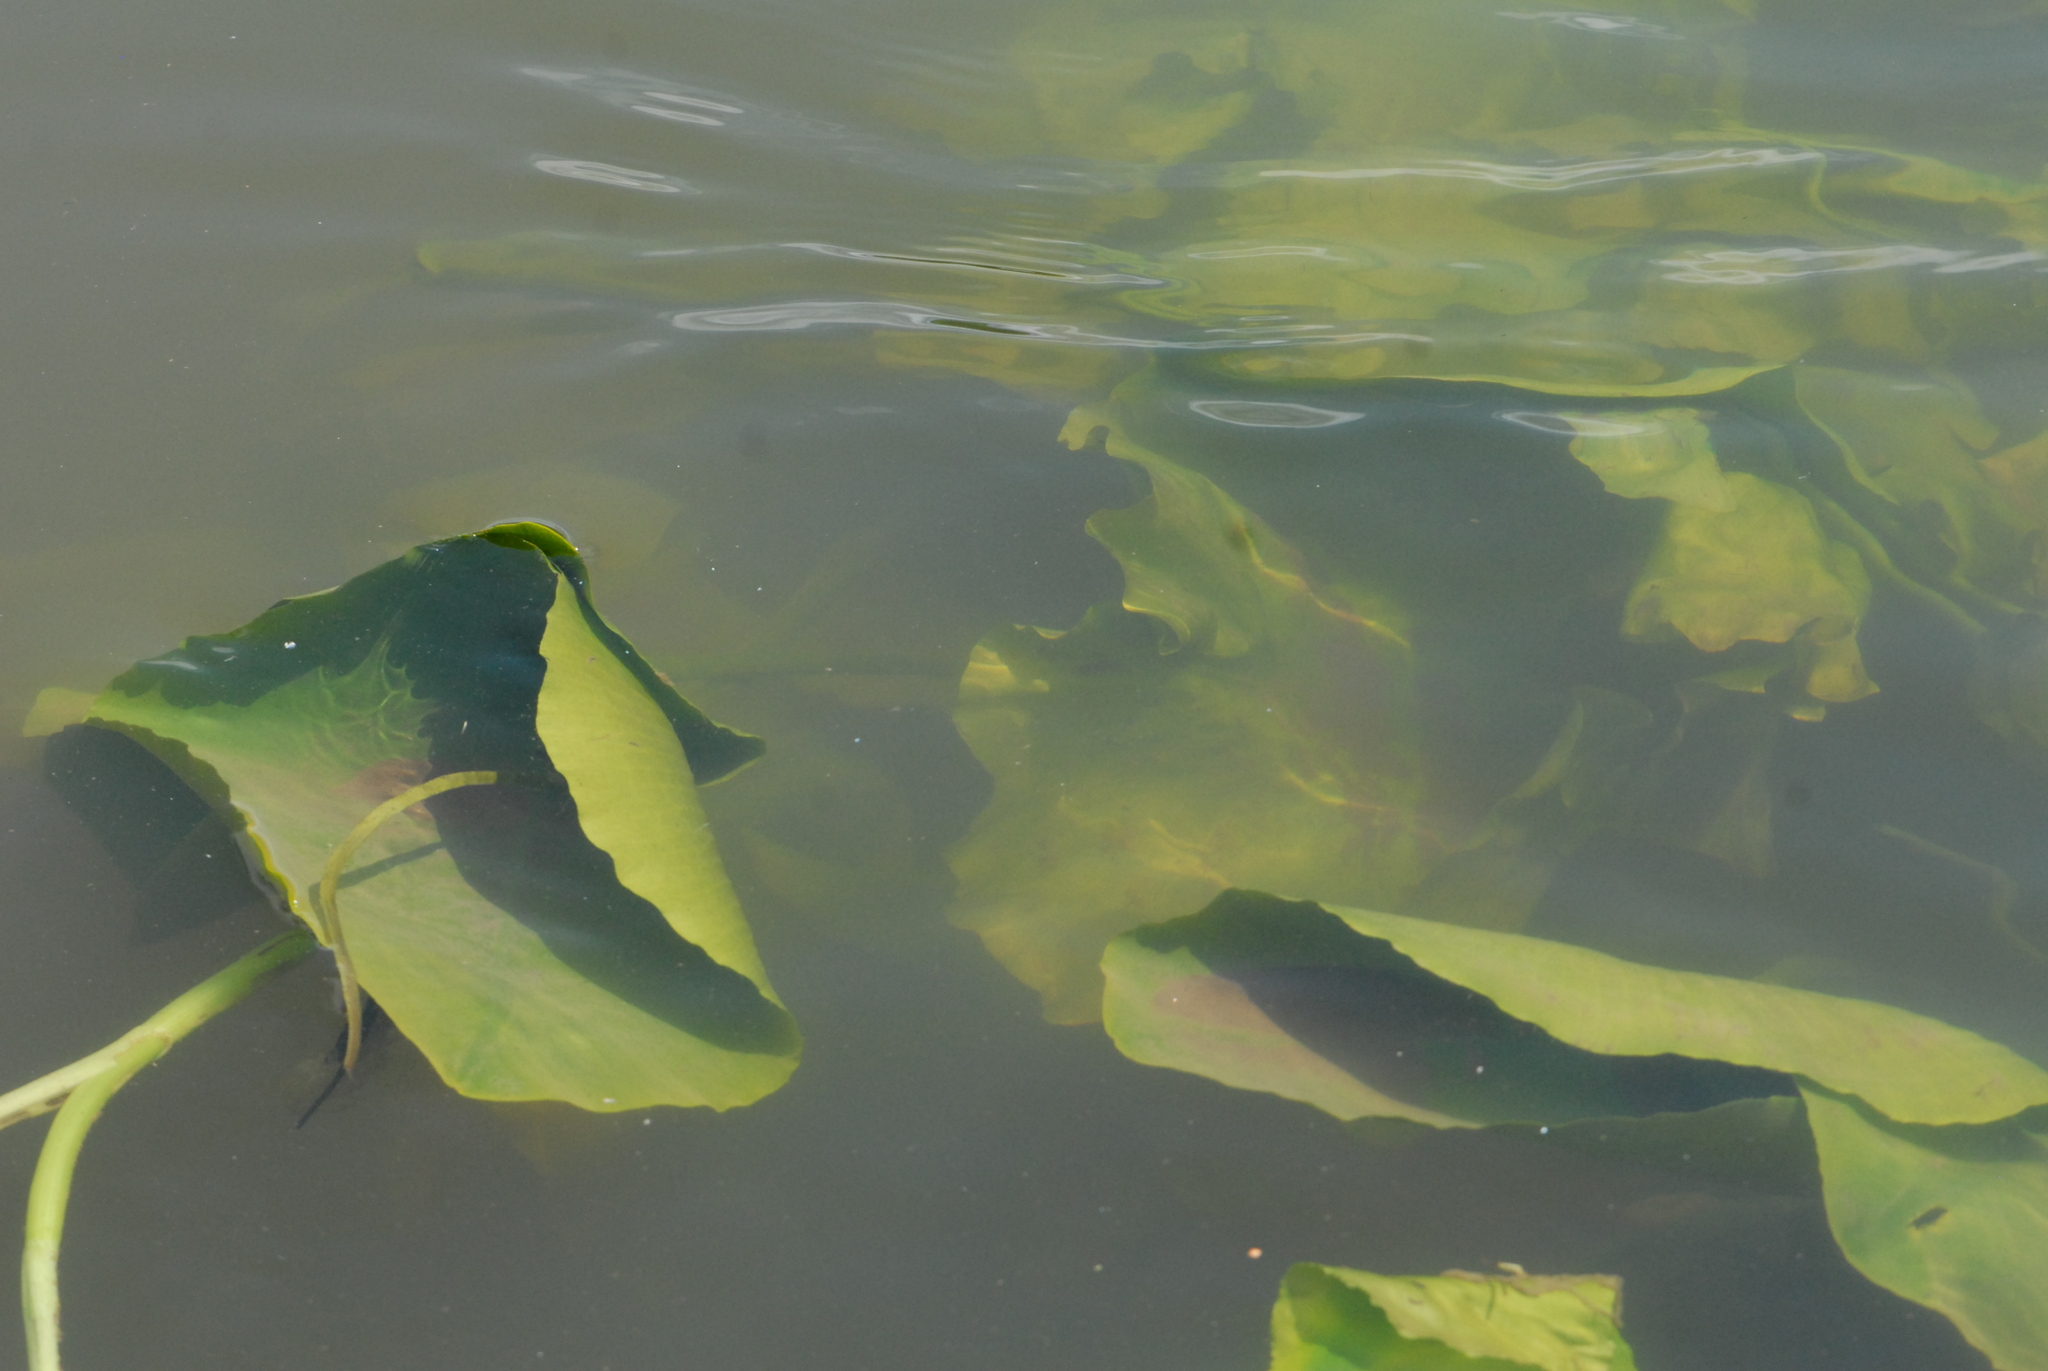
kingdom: Plantae
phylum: Tracheophyta
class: Magnoliopsida
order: Nymphaeales
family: Nymphaeaceae
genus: Nuphar
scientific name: Nuphar lutea
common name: Yellow water-lily
